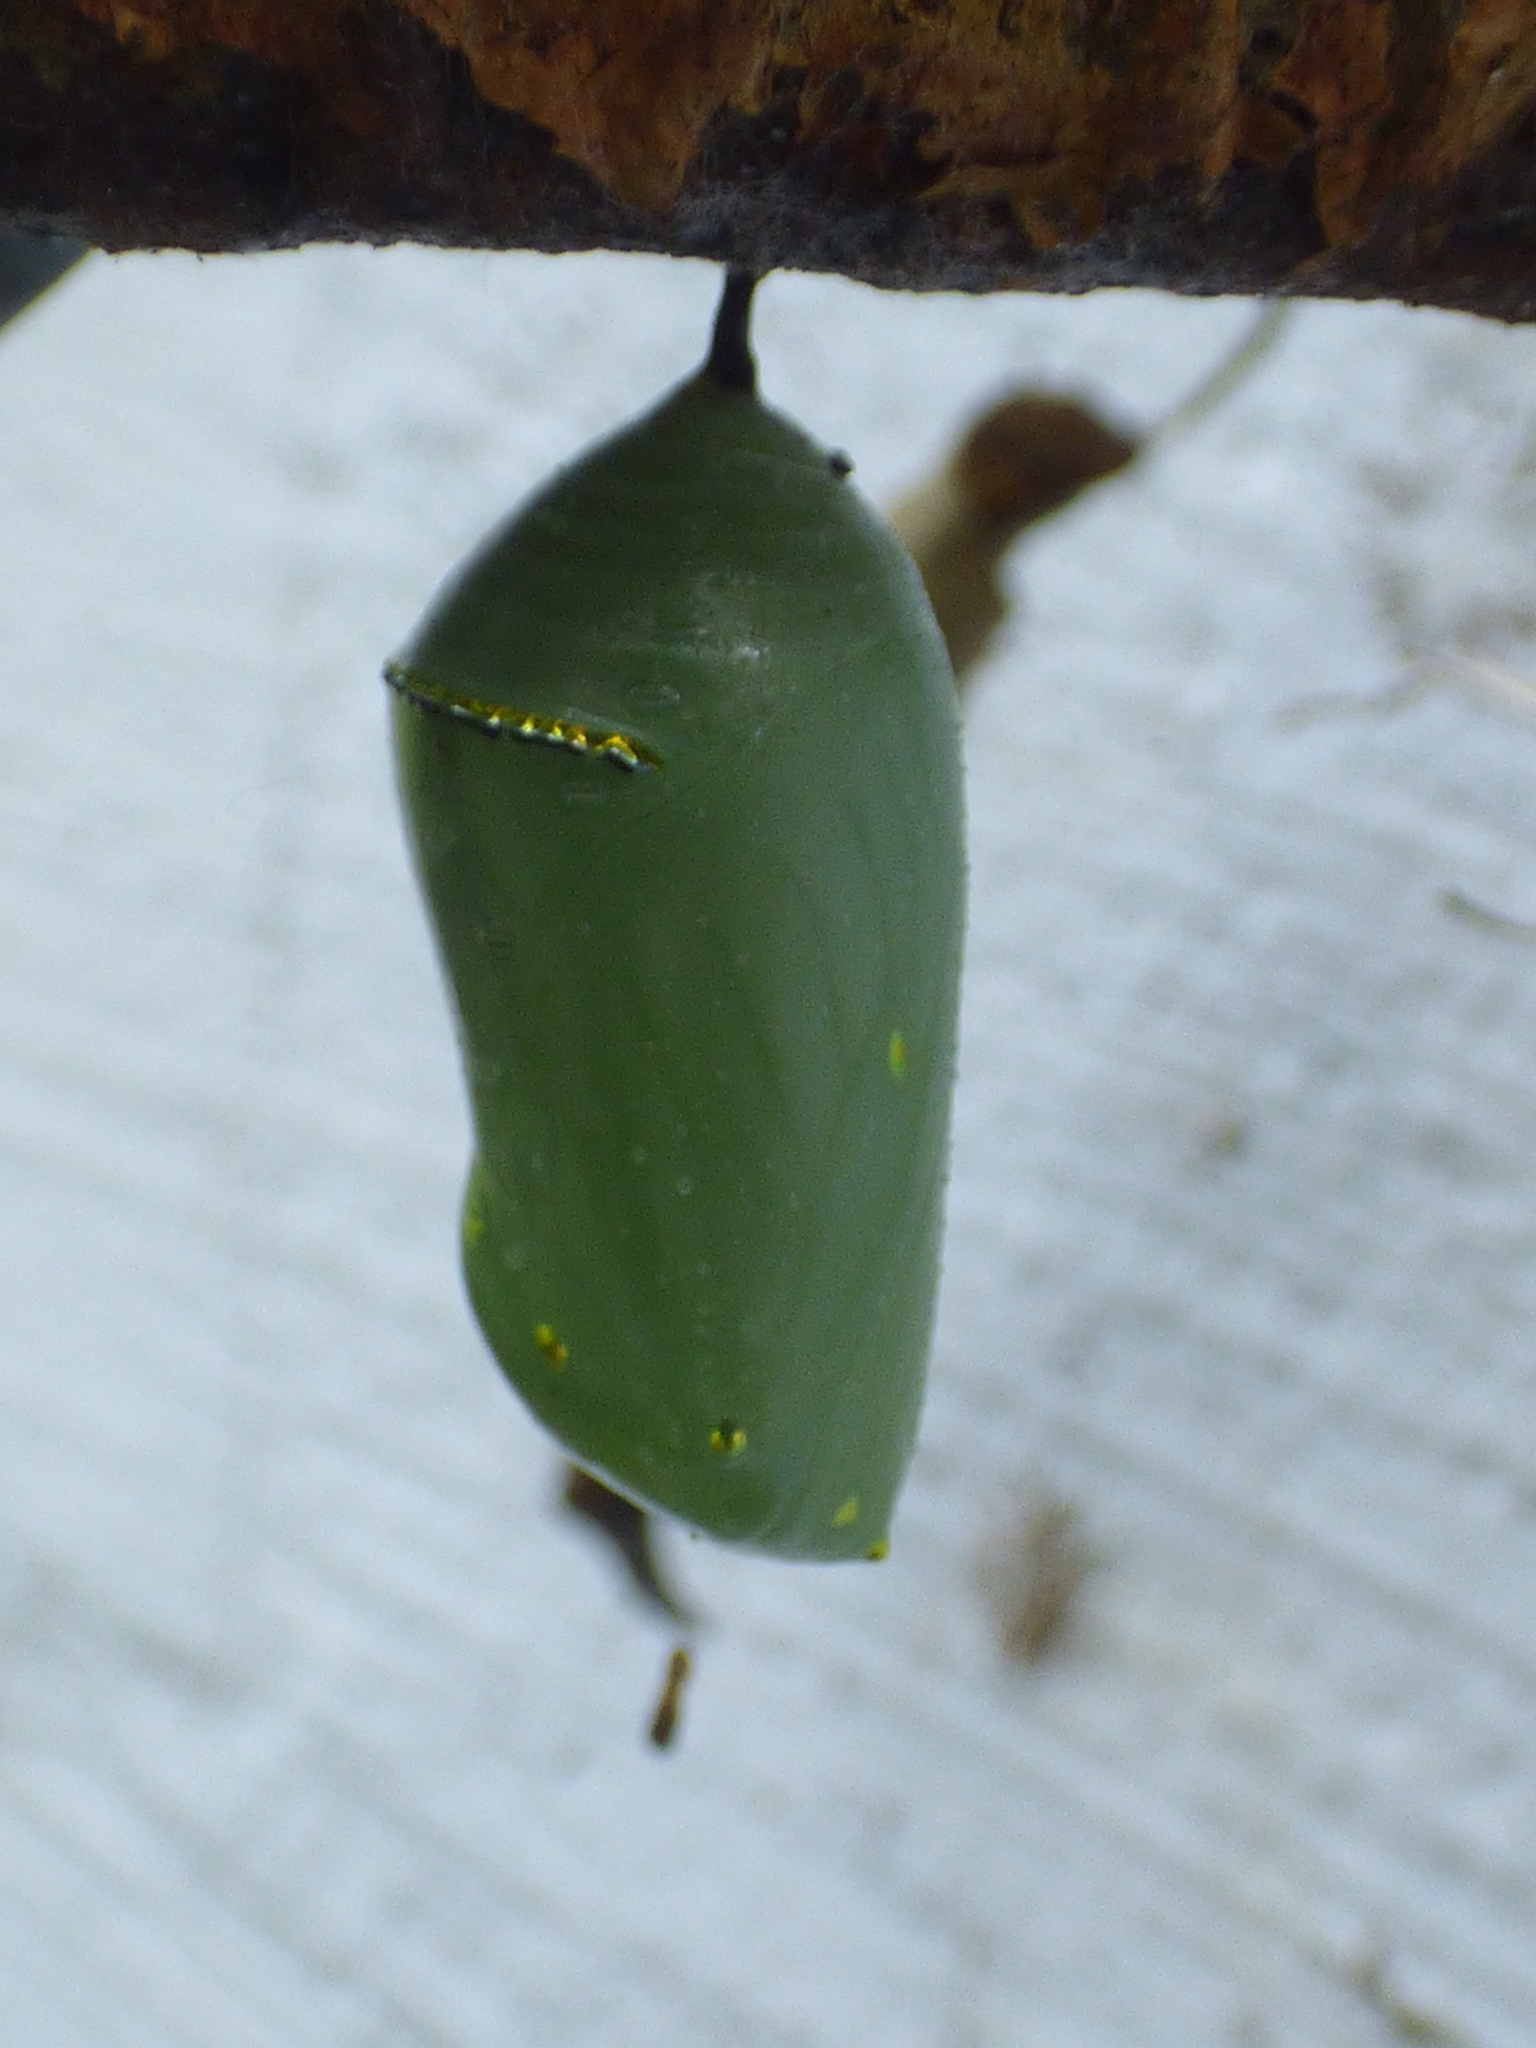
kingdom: Animalia
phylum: Arthropoda
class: Insecta
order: Lepidoptera
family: Nymphalidae
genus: Danaus
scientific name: Danaus plexippus
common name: Monarch
